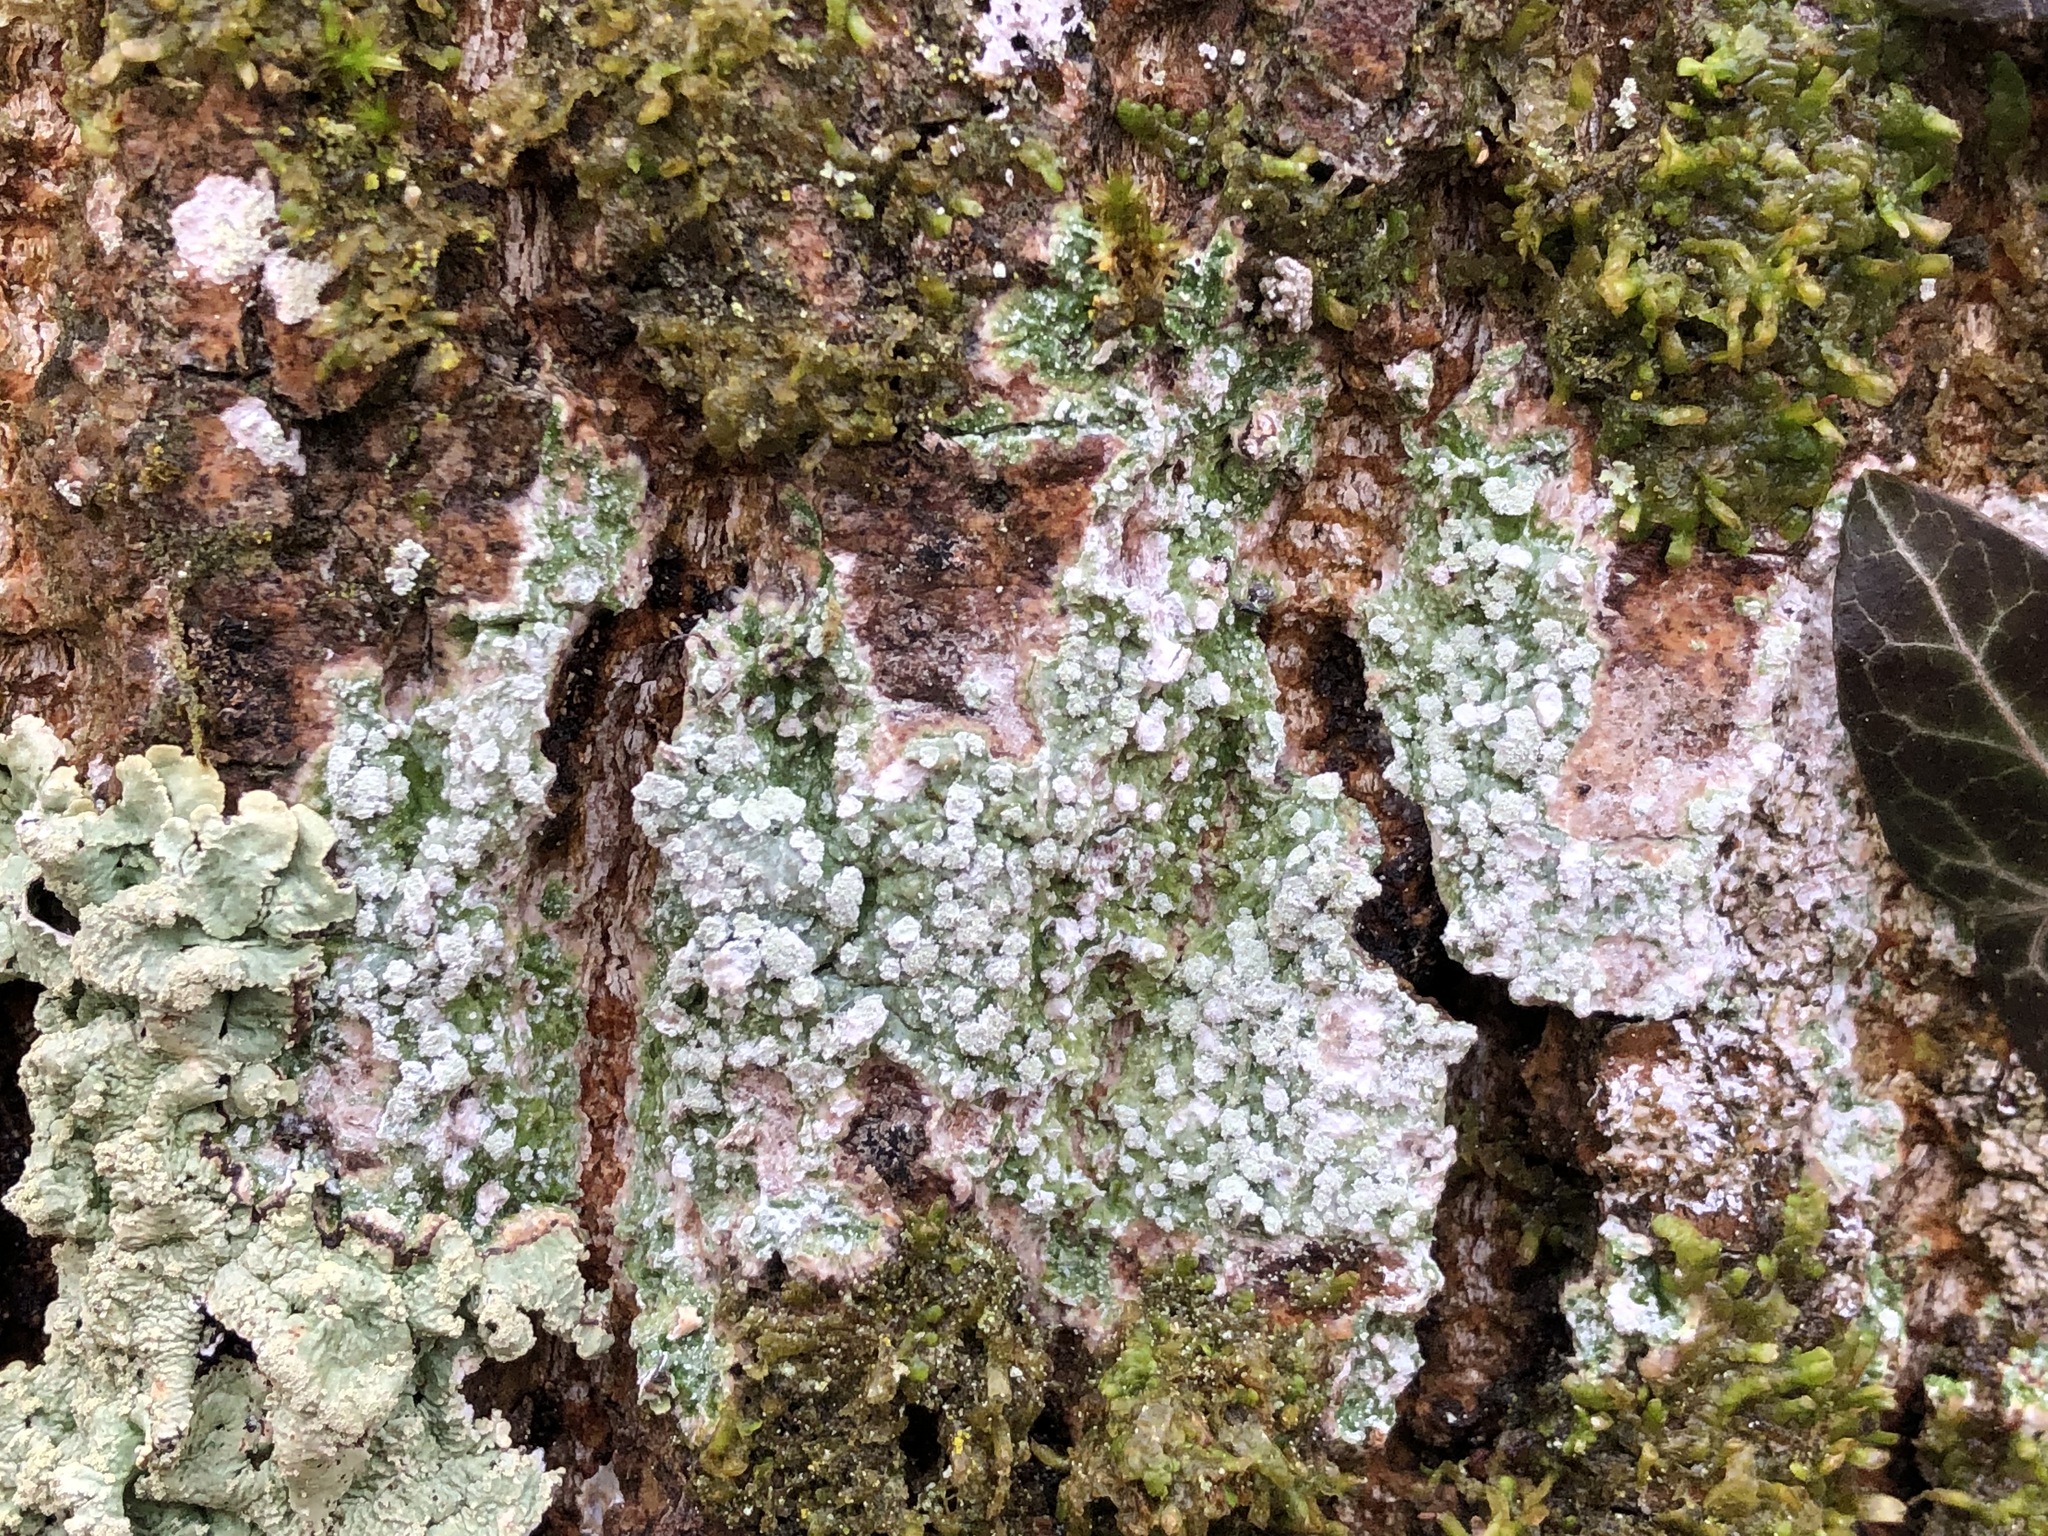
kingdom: Fungi
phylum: Ascomycota
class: Lecanoromycetes
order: Pertusariales
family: Pertusariaceae
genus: Lepra
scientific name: Lepra albescens
